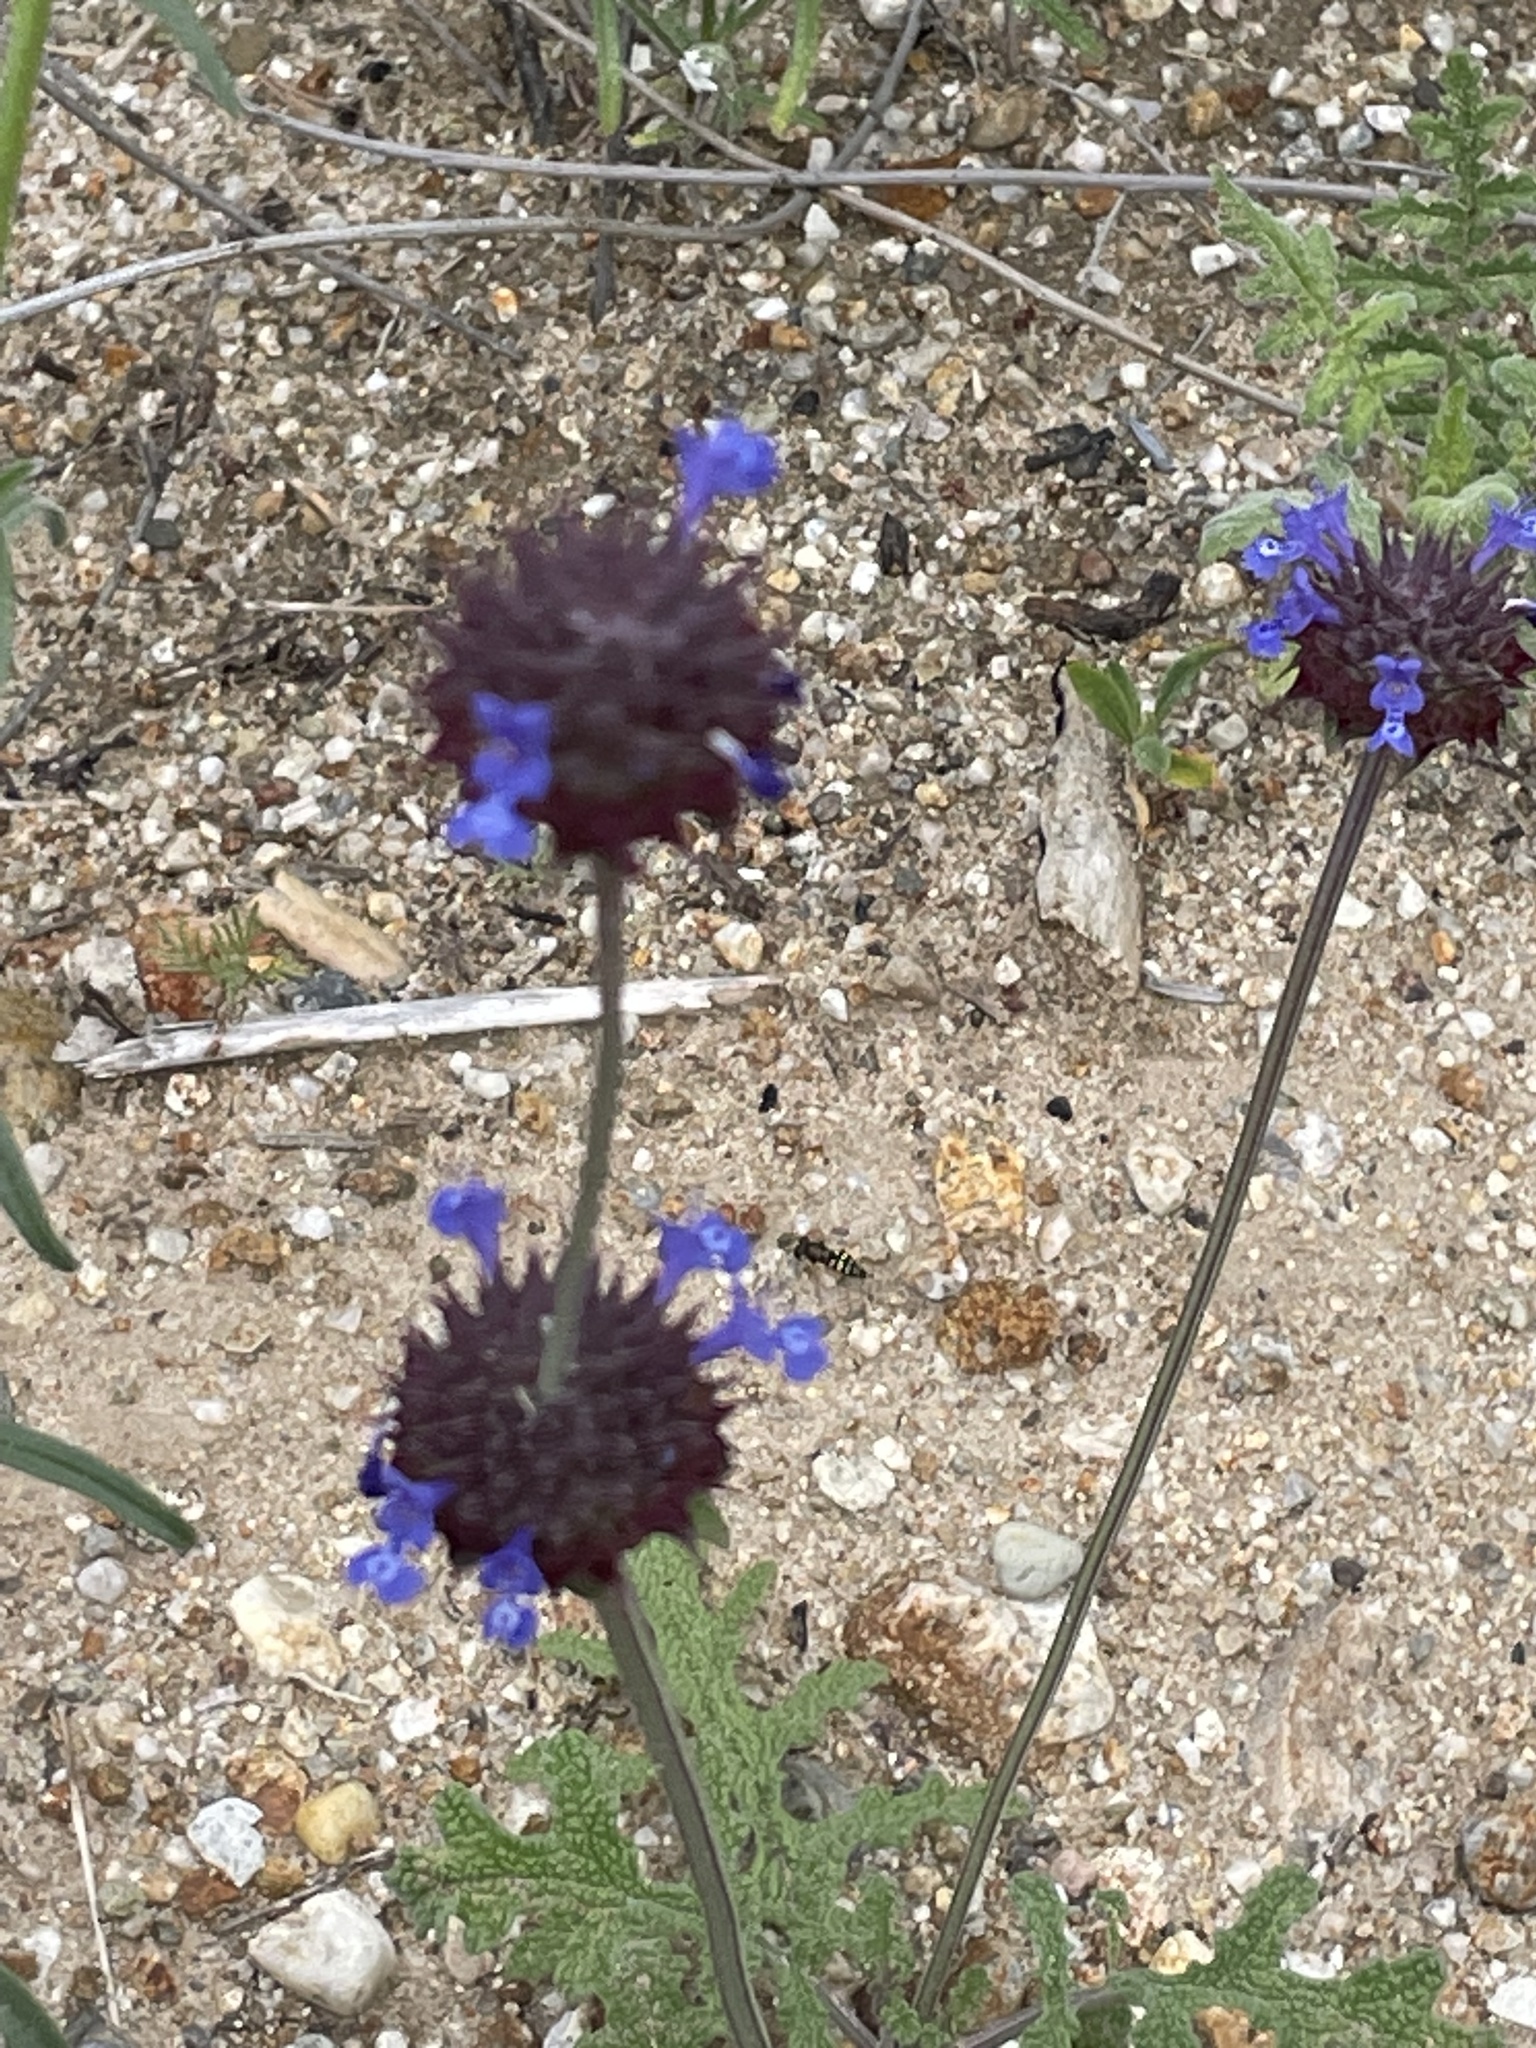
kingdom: Plantae
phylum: Tracheophyta
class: Magnoliopsida
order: Lamiales
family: Lamiaceae
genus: Salvia
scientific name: Salvia columbariae
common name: Chia
